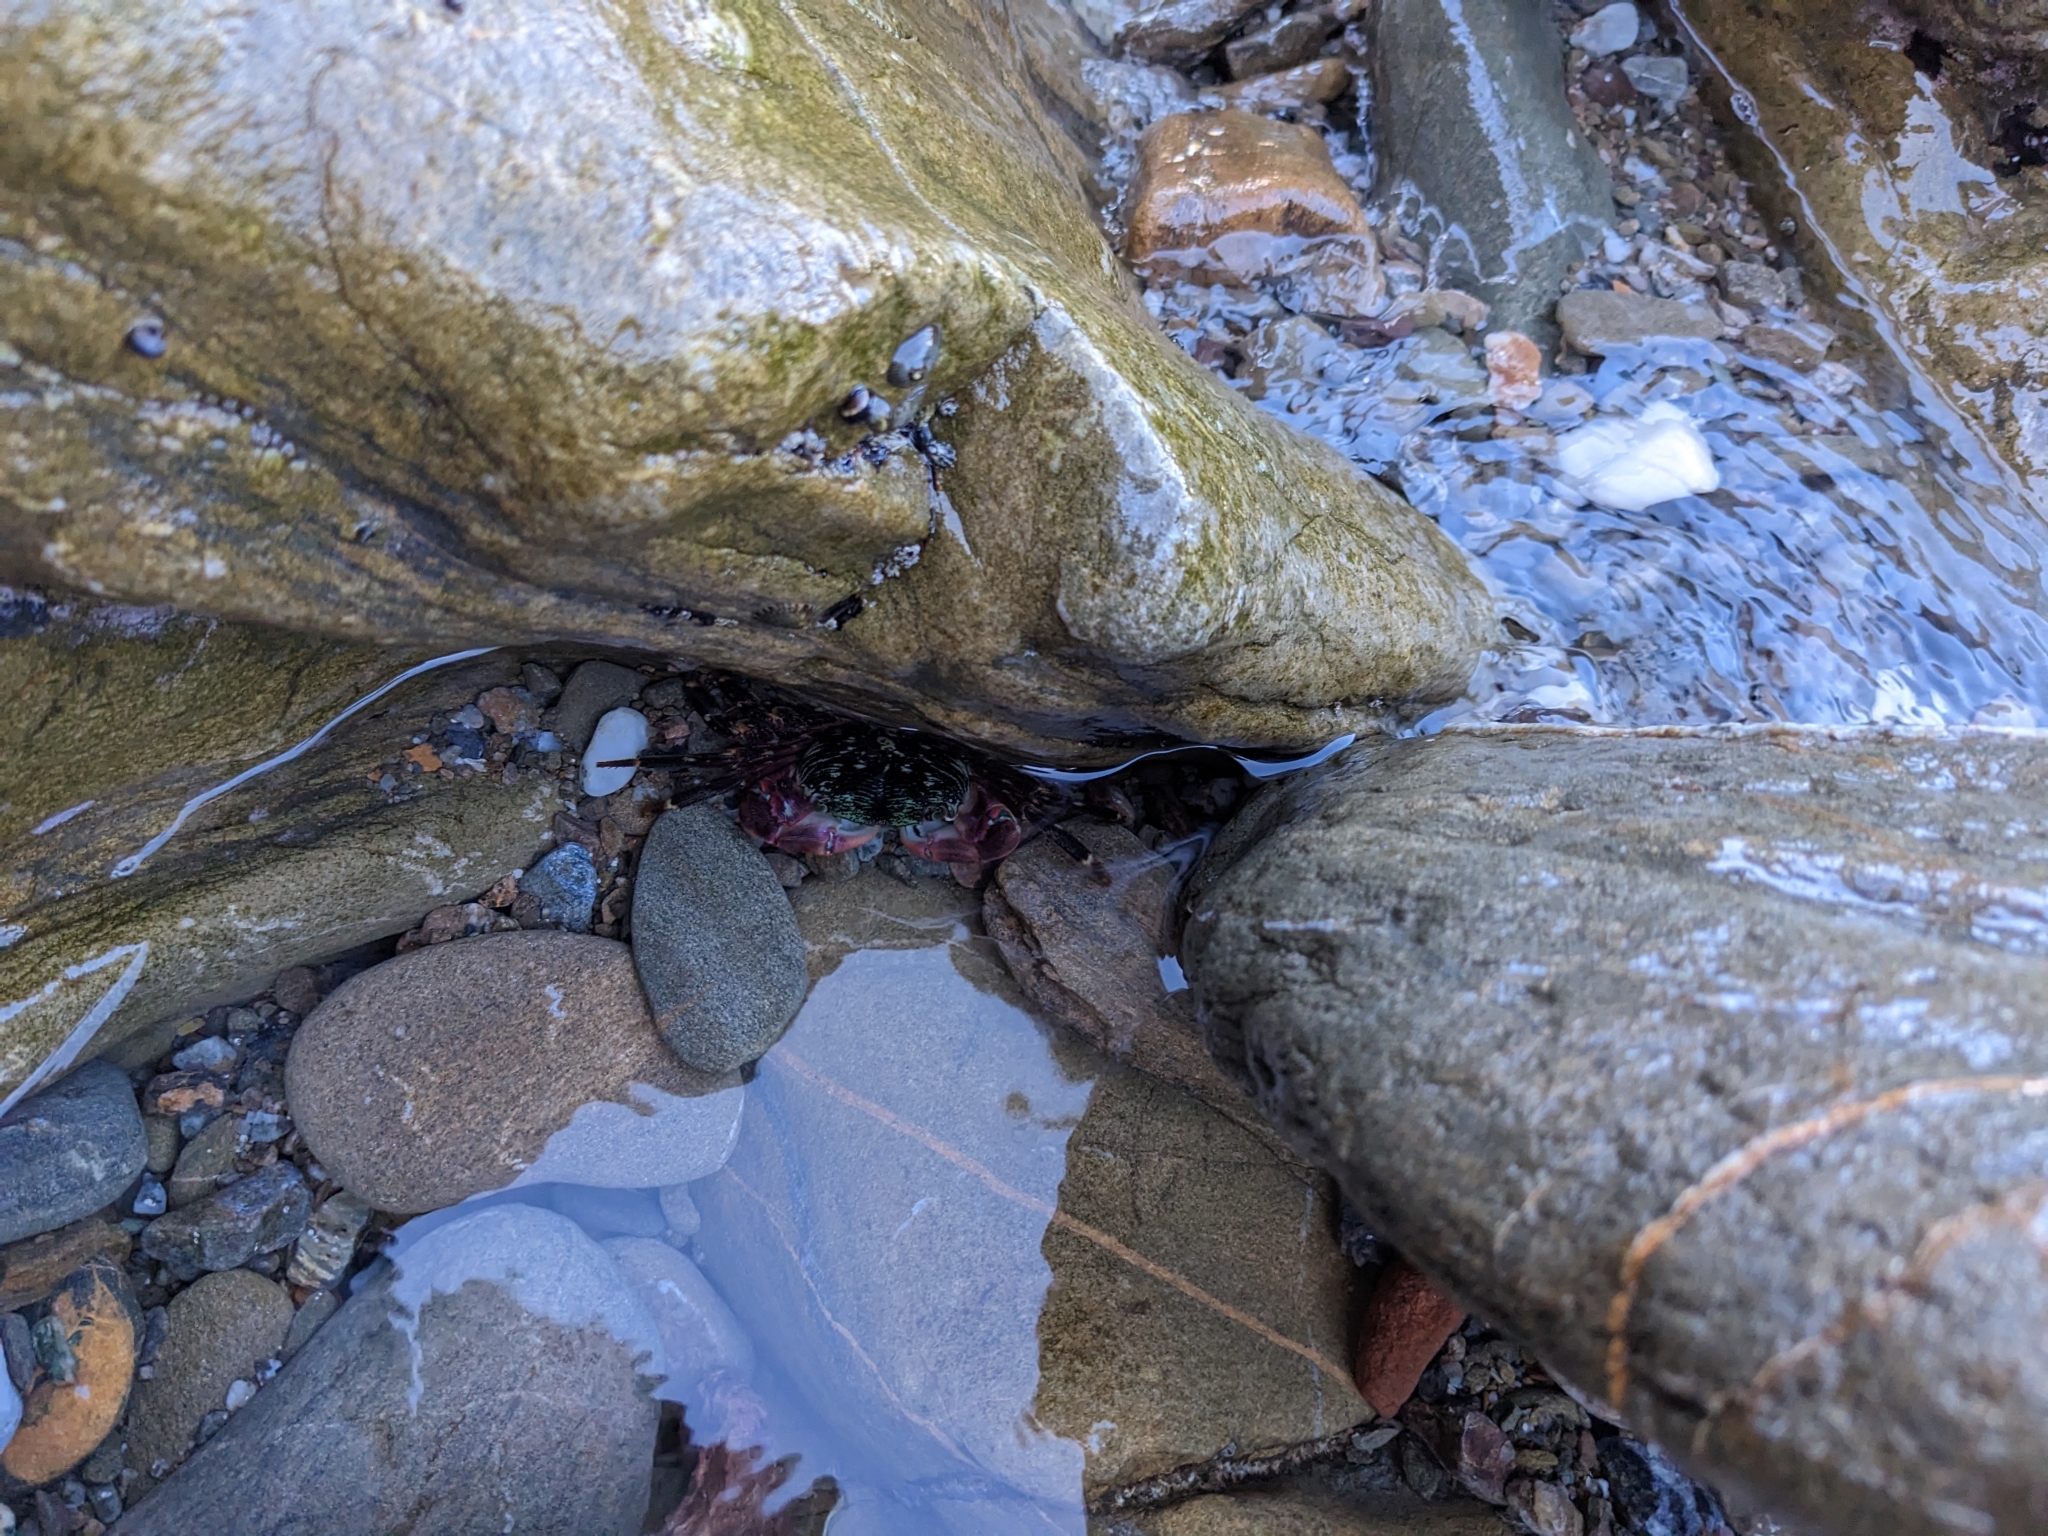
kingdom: Animalia
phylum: Arthropoda
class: Malacostraca
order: Decapoda
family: Grapsidae
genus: Pachygrapsus
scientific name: Pachygrapsus crassipes
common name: Striped shore crab
